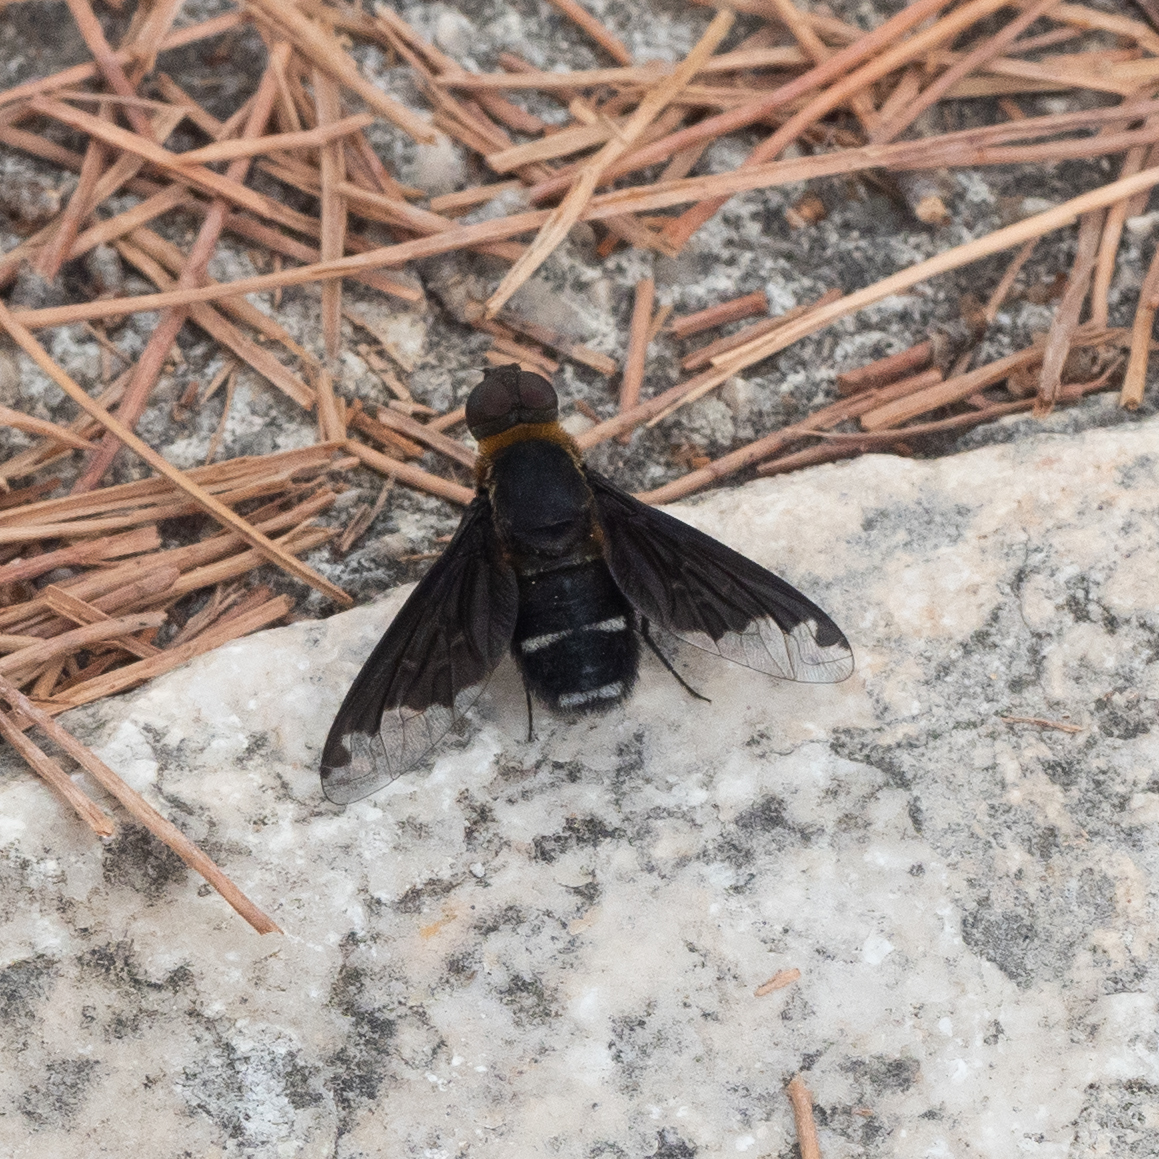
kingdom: Animalia
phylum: Arthropoda
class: Insecta
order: Diptera
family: Bombyliidae
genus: Hemipenthes
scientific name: Hemipenthes velutina
